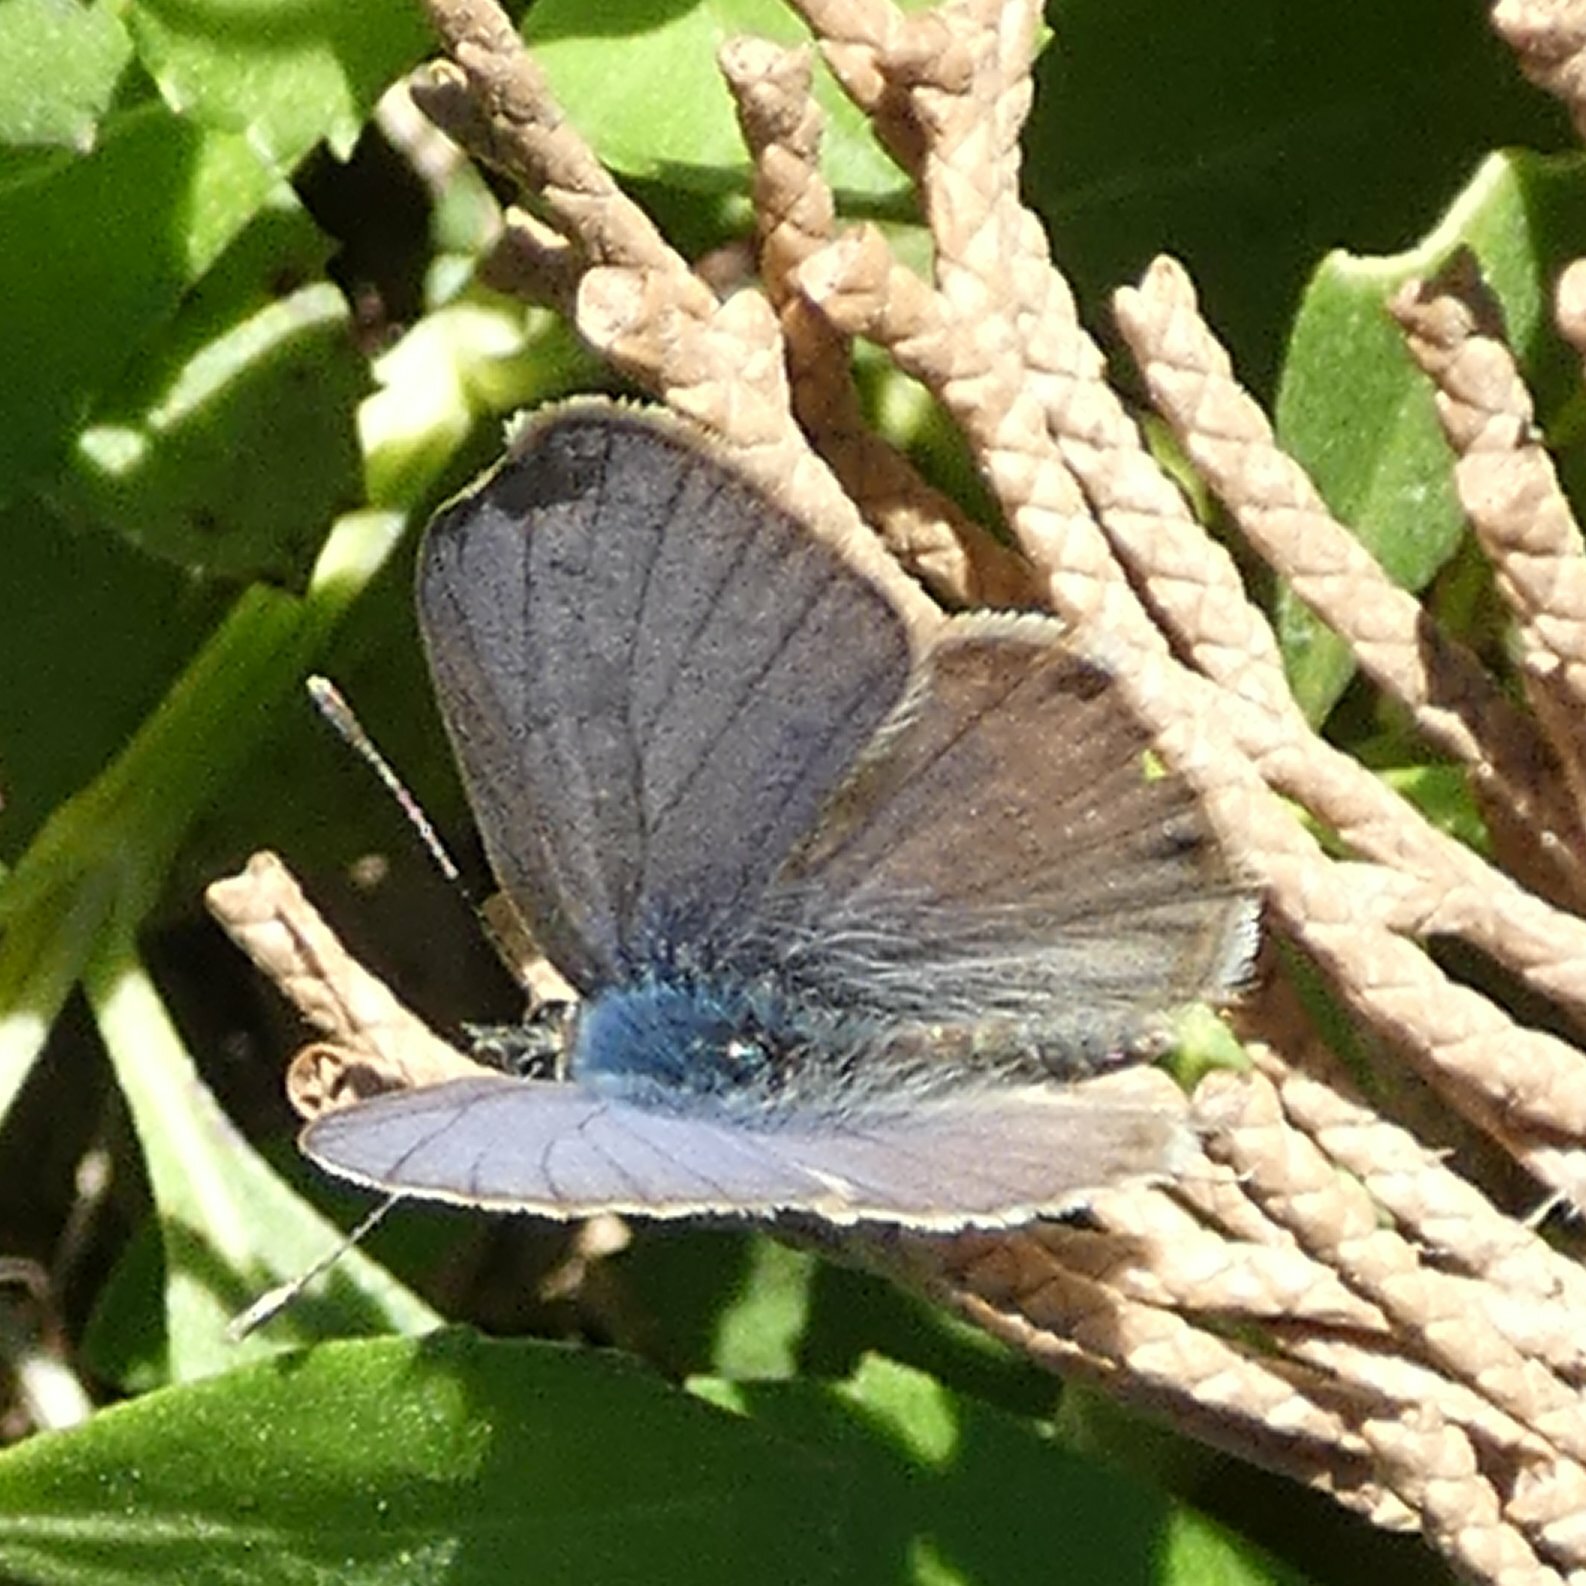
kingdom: Animalia
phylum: Arthropoda
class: Insecta
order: Lepidoptera
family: Lycaenidae
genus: Leptotes
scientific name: Leptotes pirithous
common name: Lang's short-tailed blue
